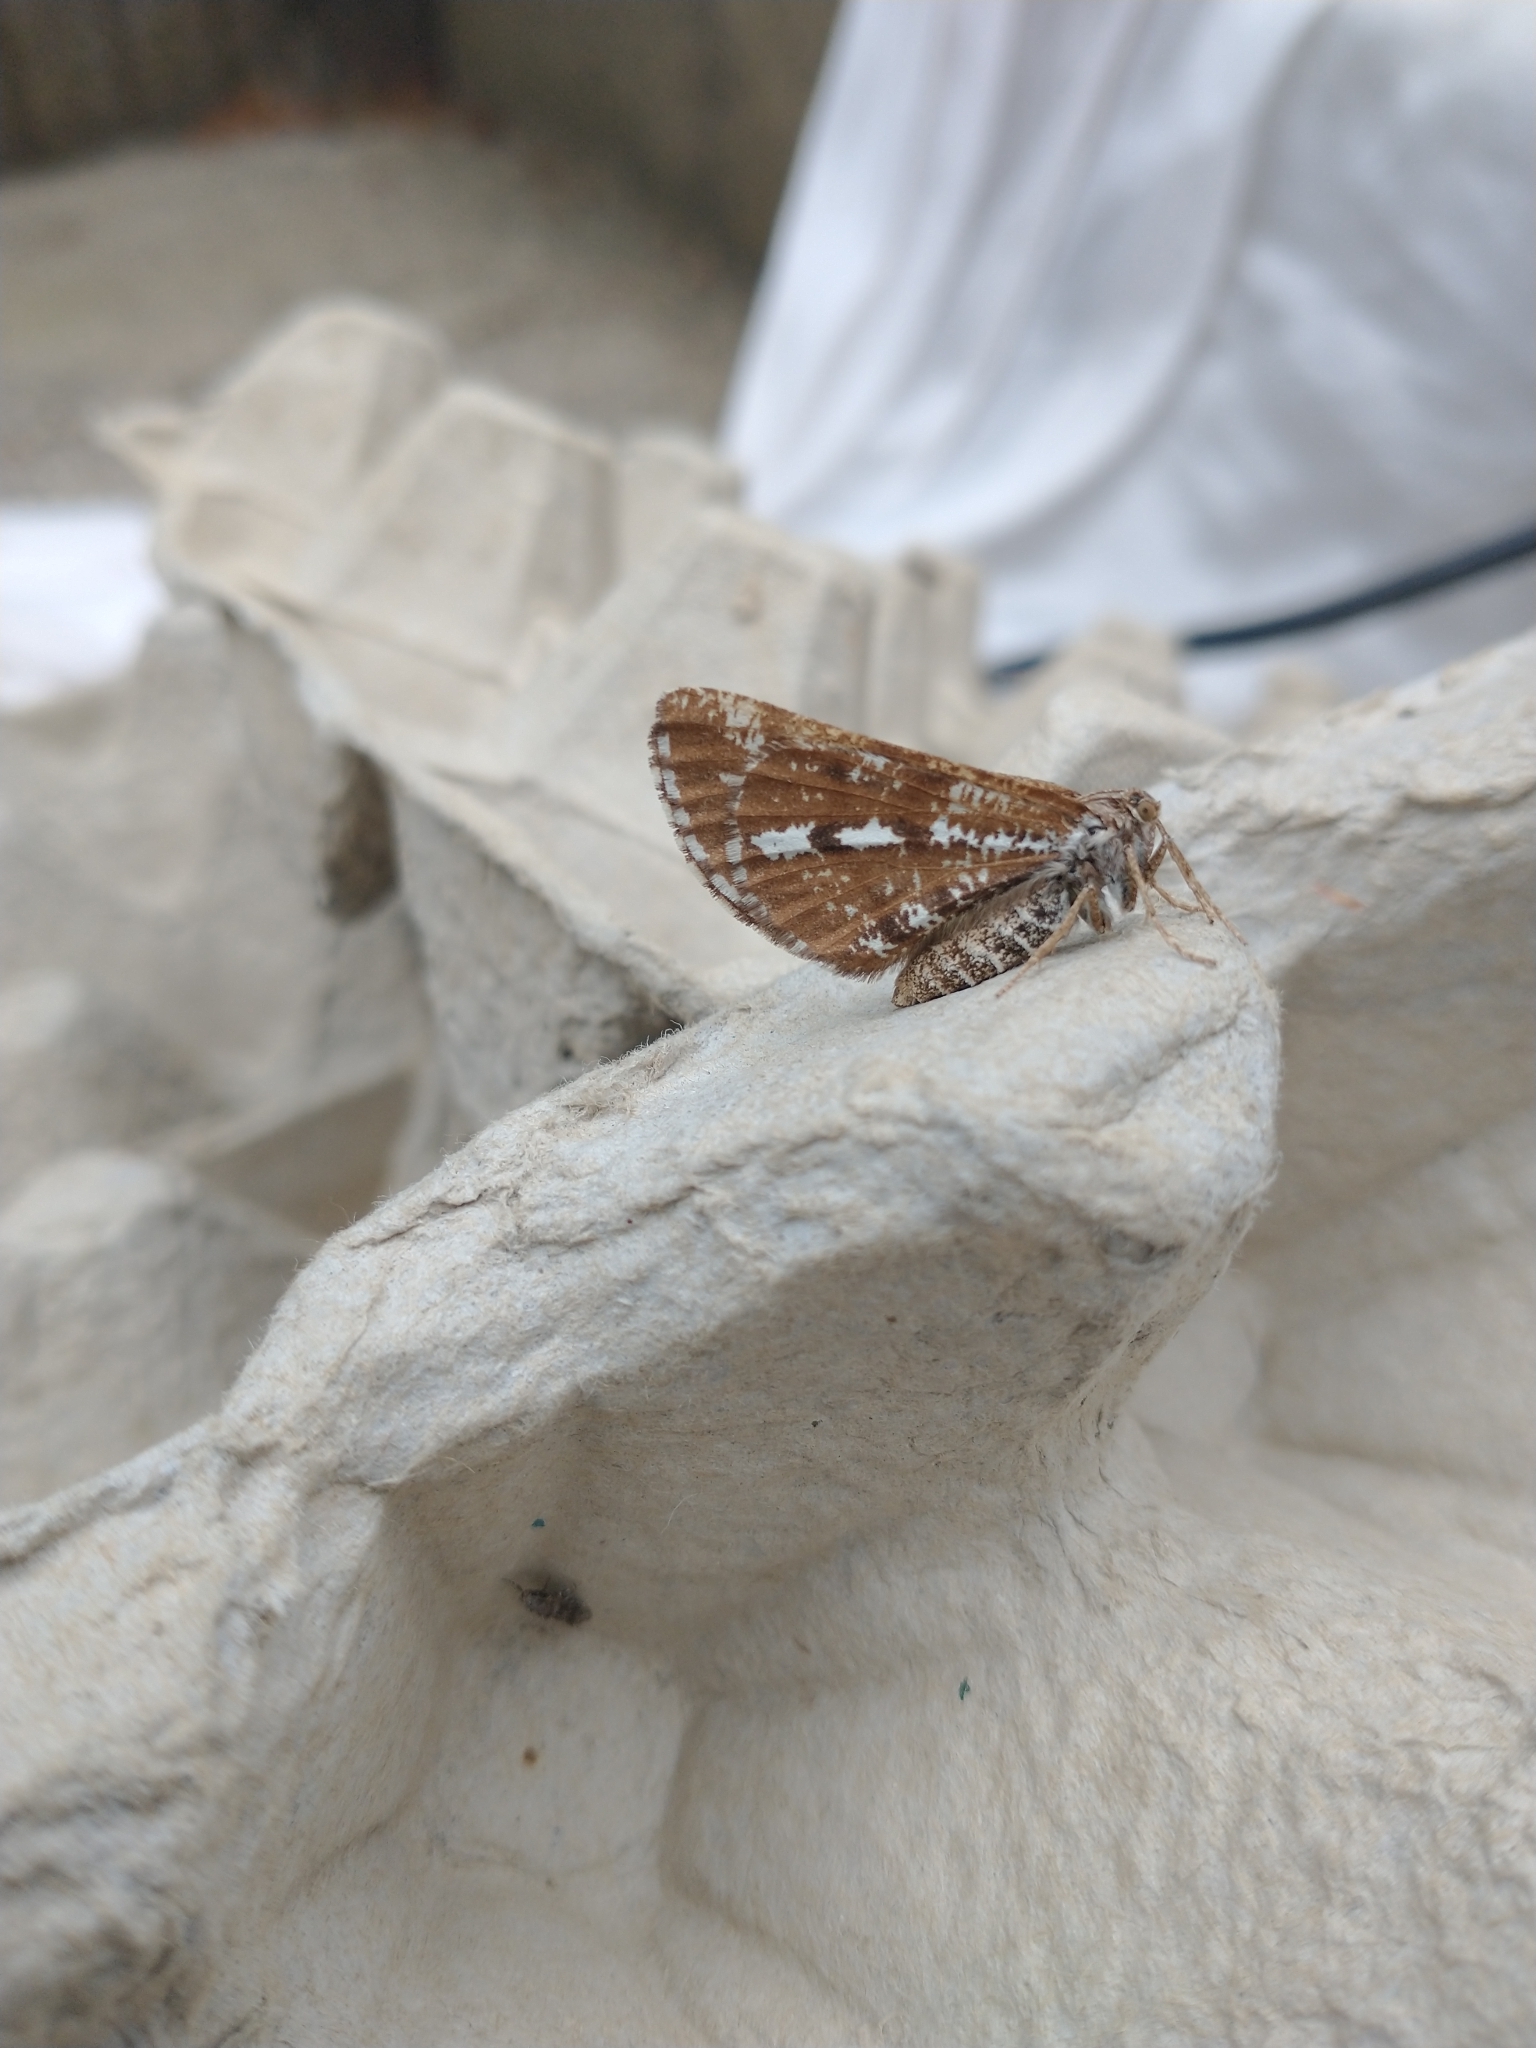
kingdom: Animalia
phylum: Arthropoda
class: Insecta
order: Lepidoptera
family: Geometridae
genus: Bupalus
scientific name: Bupalus piniaria
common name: Bordered white
